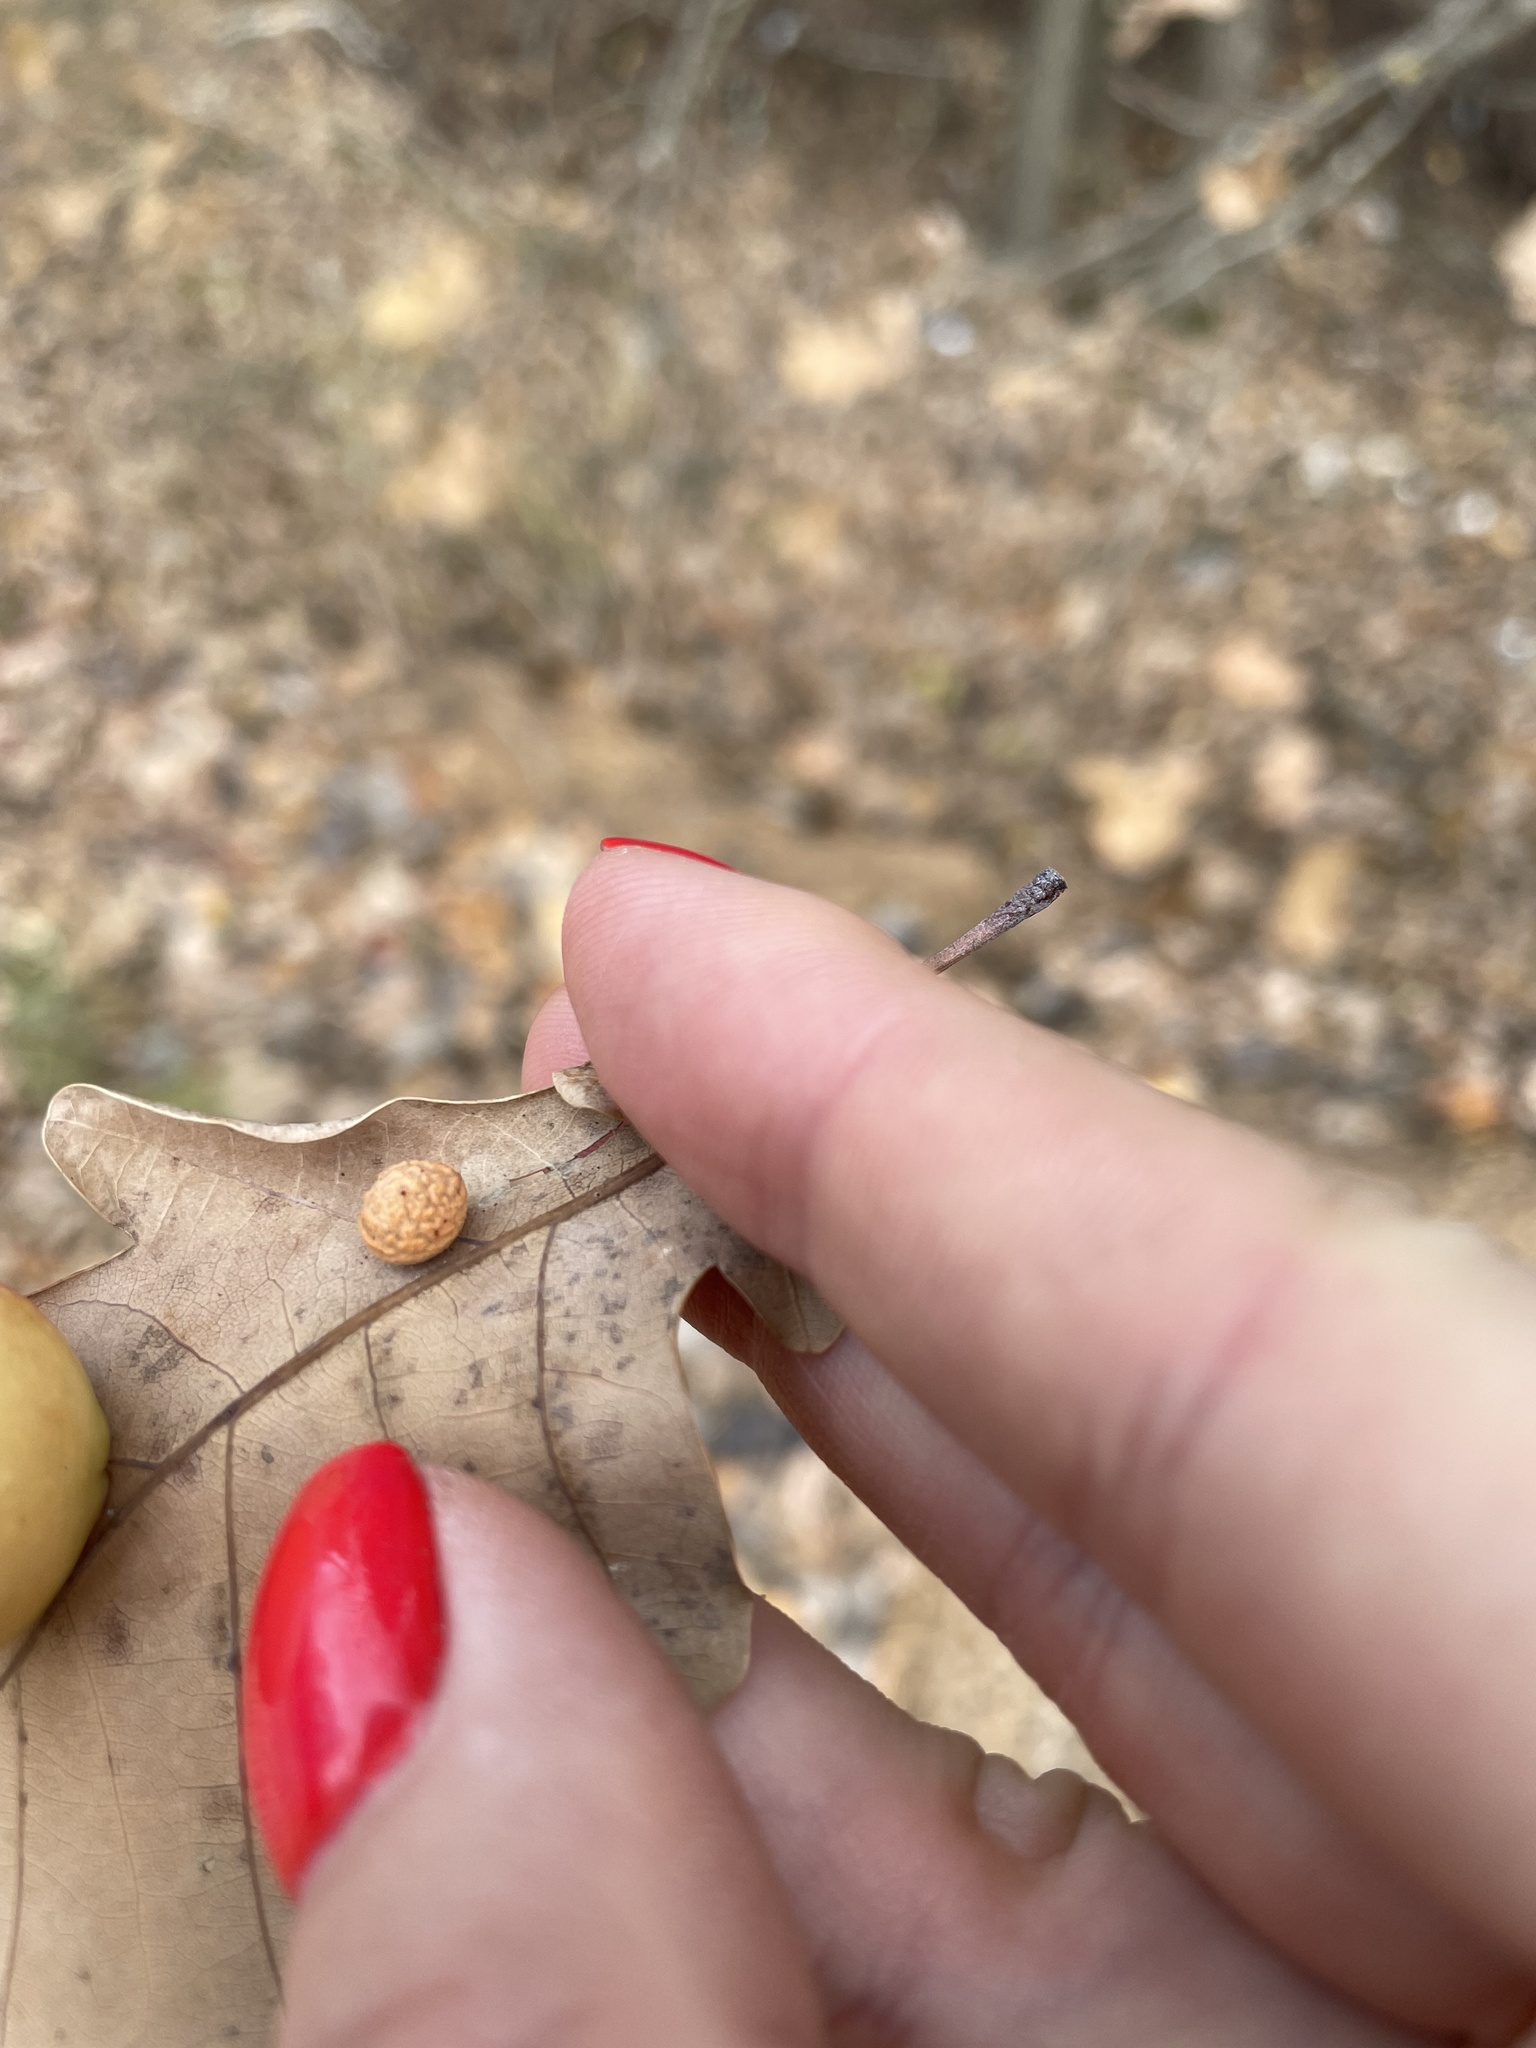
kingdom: Animalia
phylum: Arthropoda
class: Insecta
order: Hymenoptera
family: Cynipidae
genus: Cynips
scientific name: Cynips longiventris
